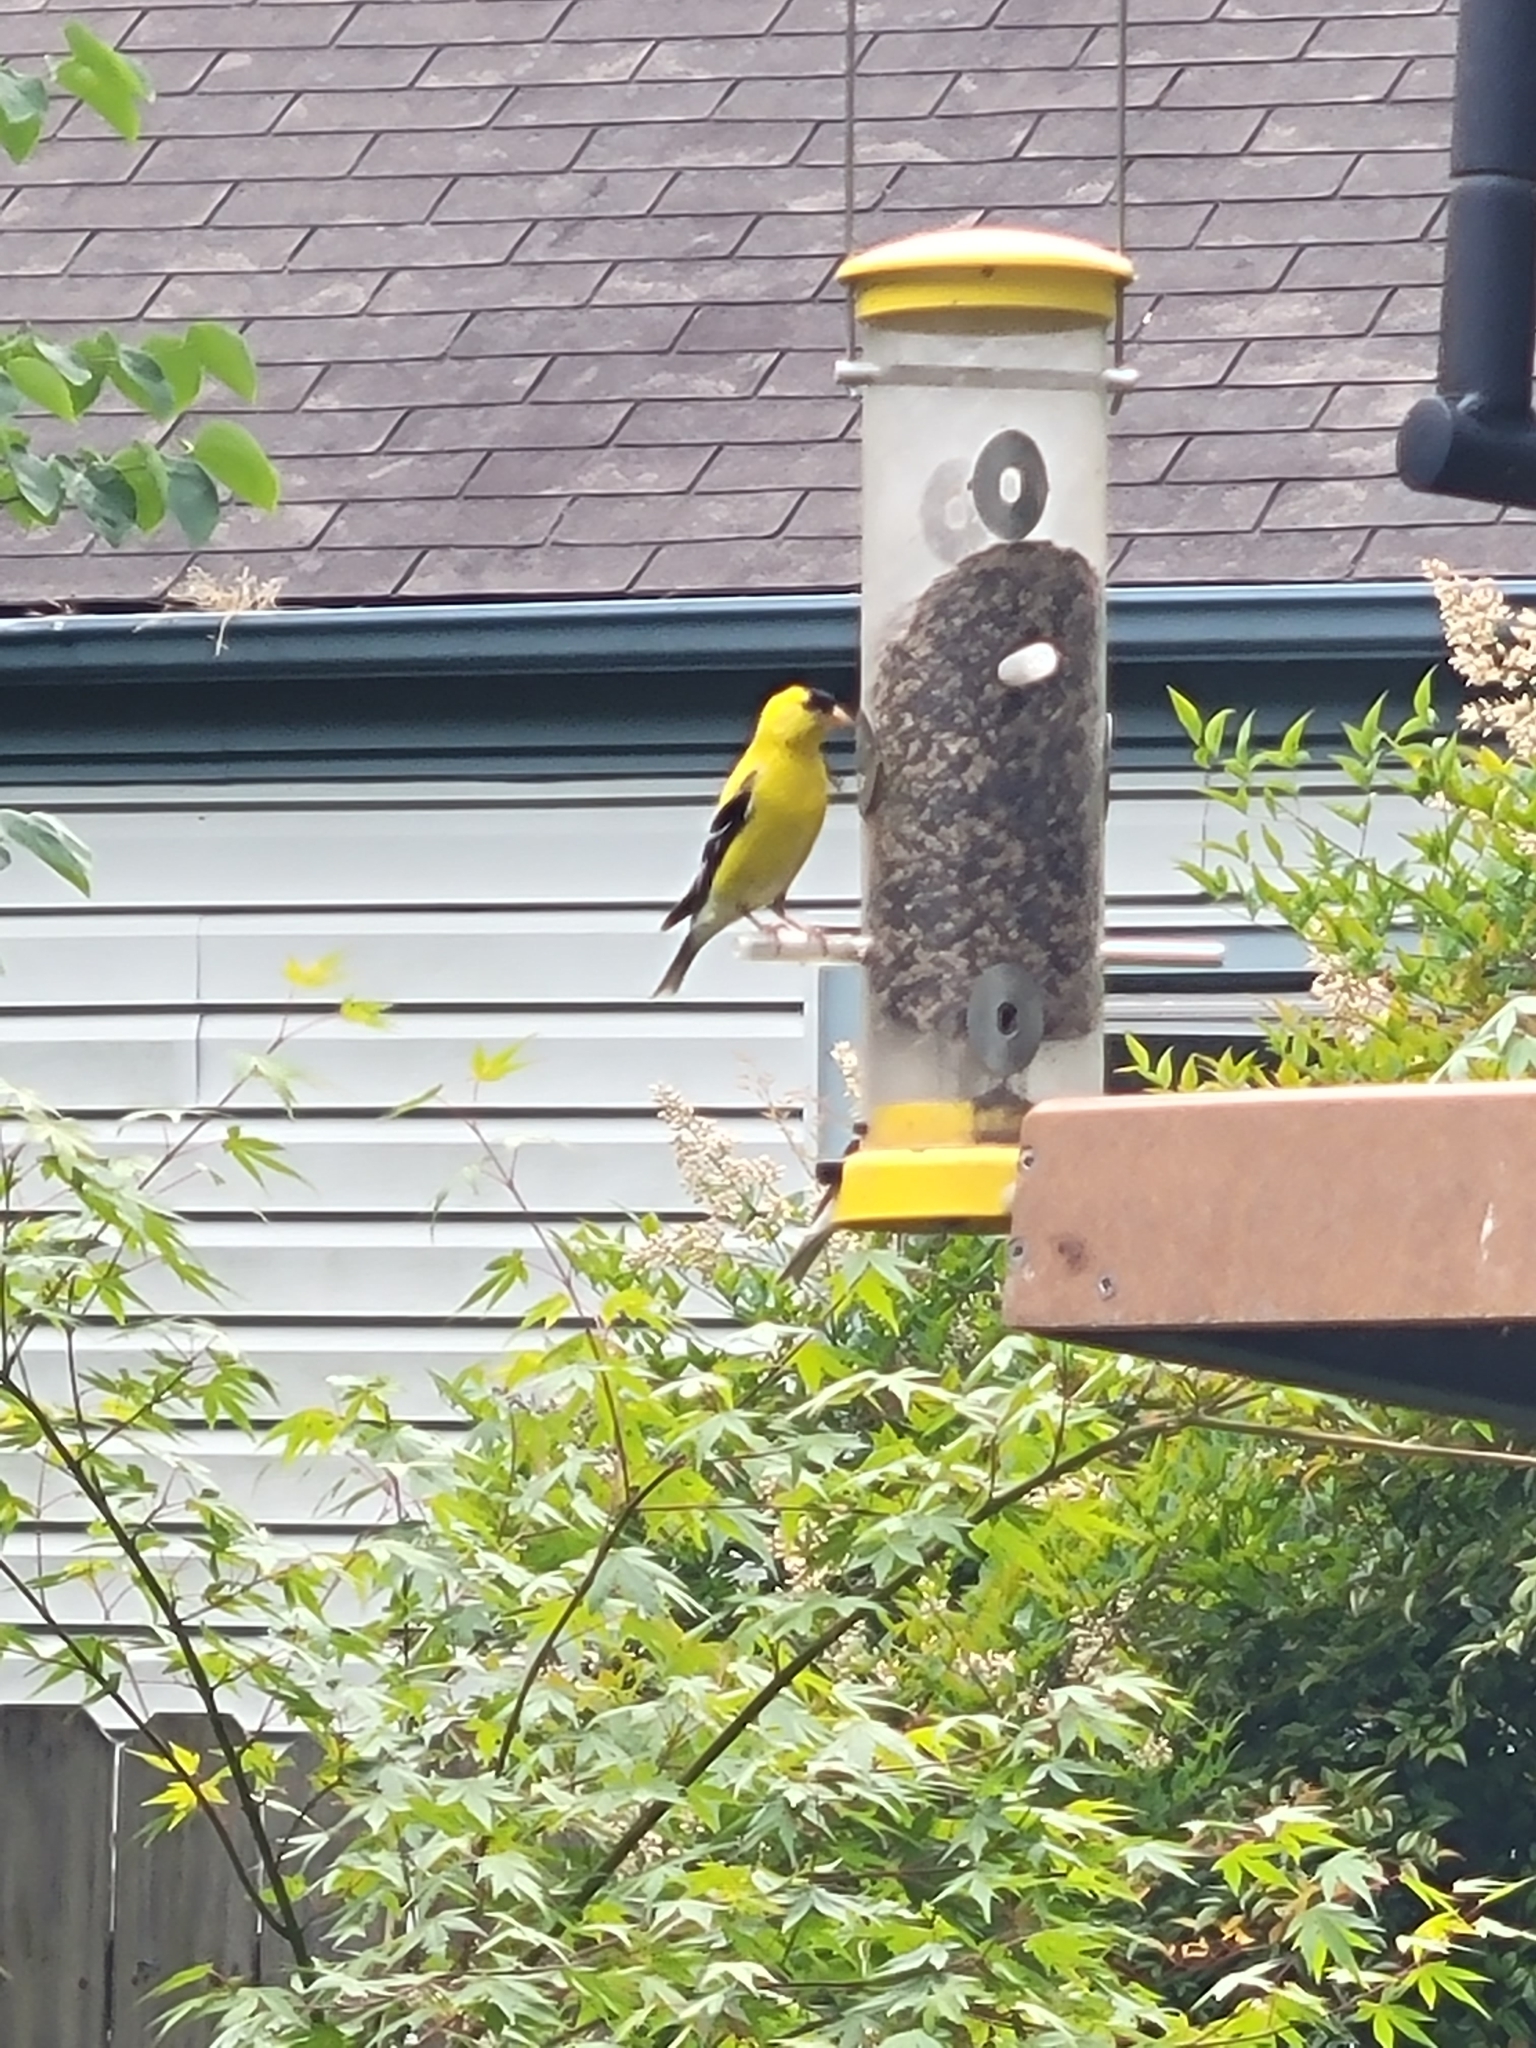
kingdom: Animalia
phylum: Chordata
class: Aves
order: Passeriformes
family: Fringillidae
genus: Spinus
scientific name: Spinus tristis
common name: American goldfinch
